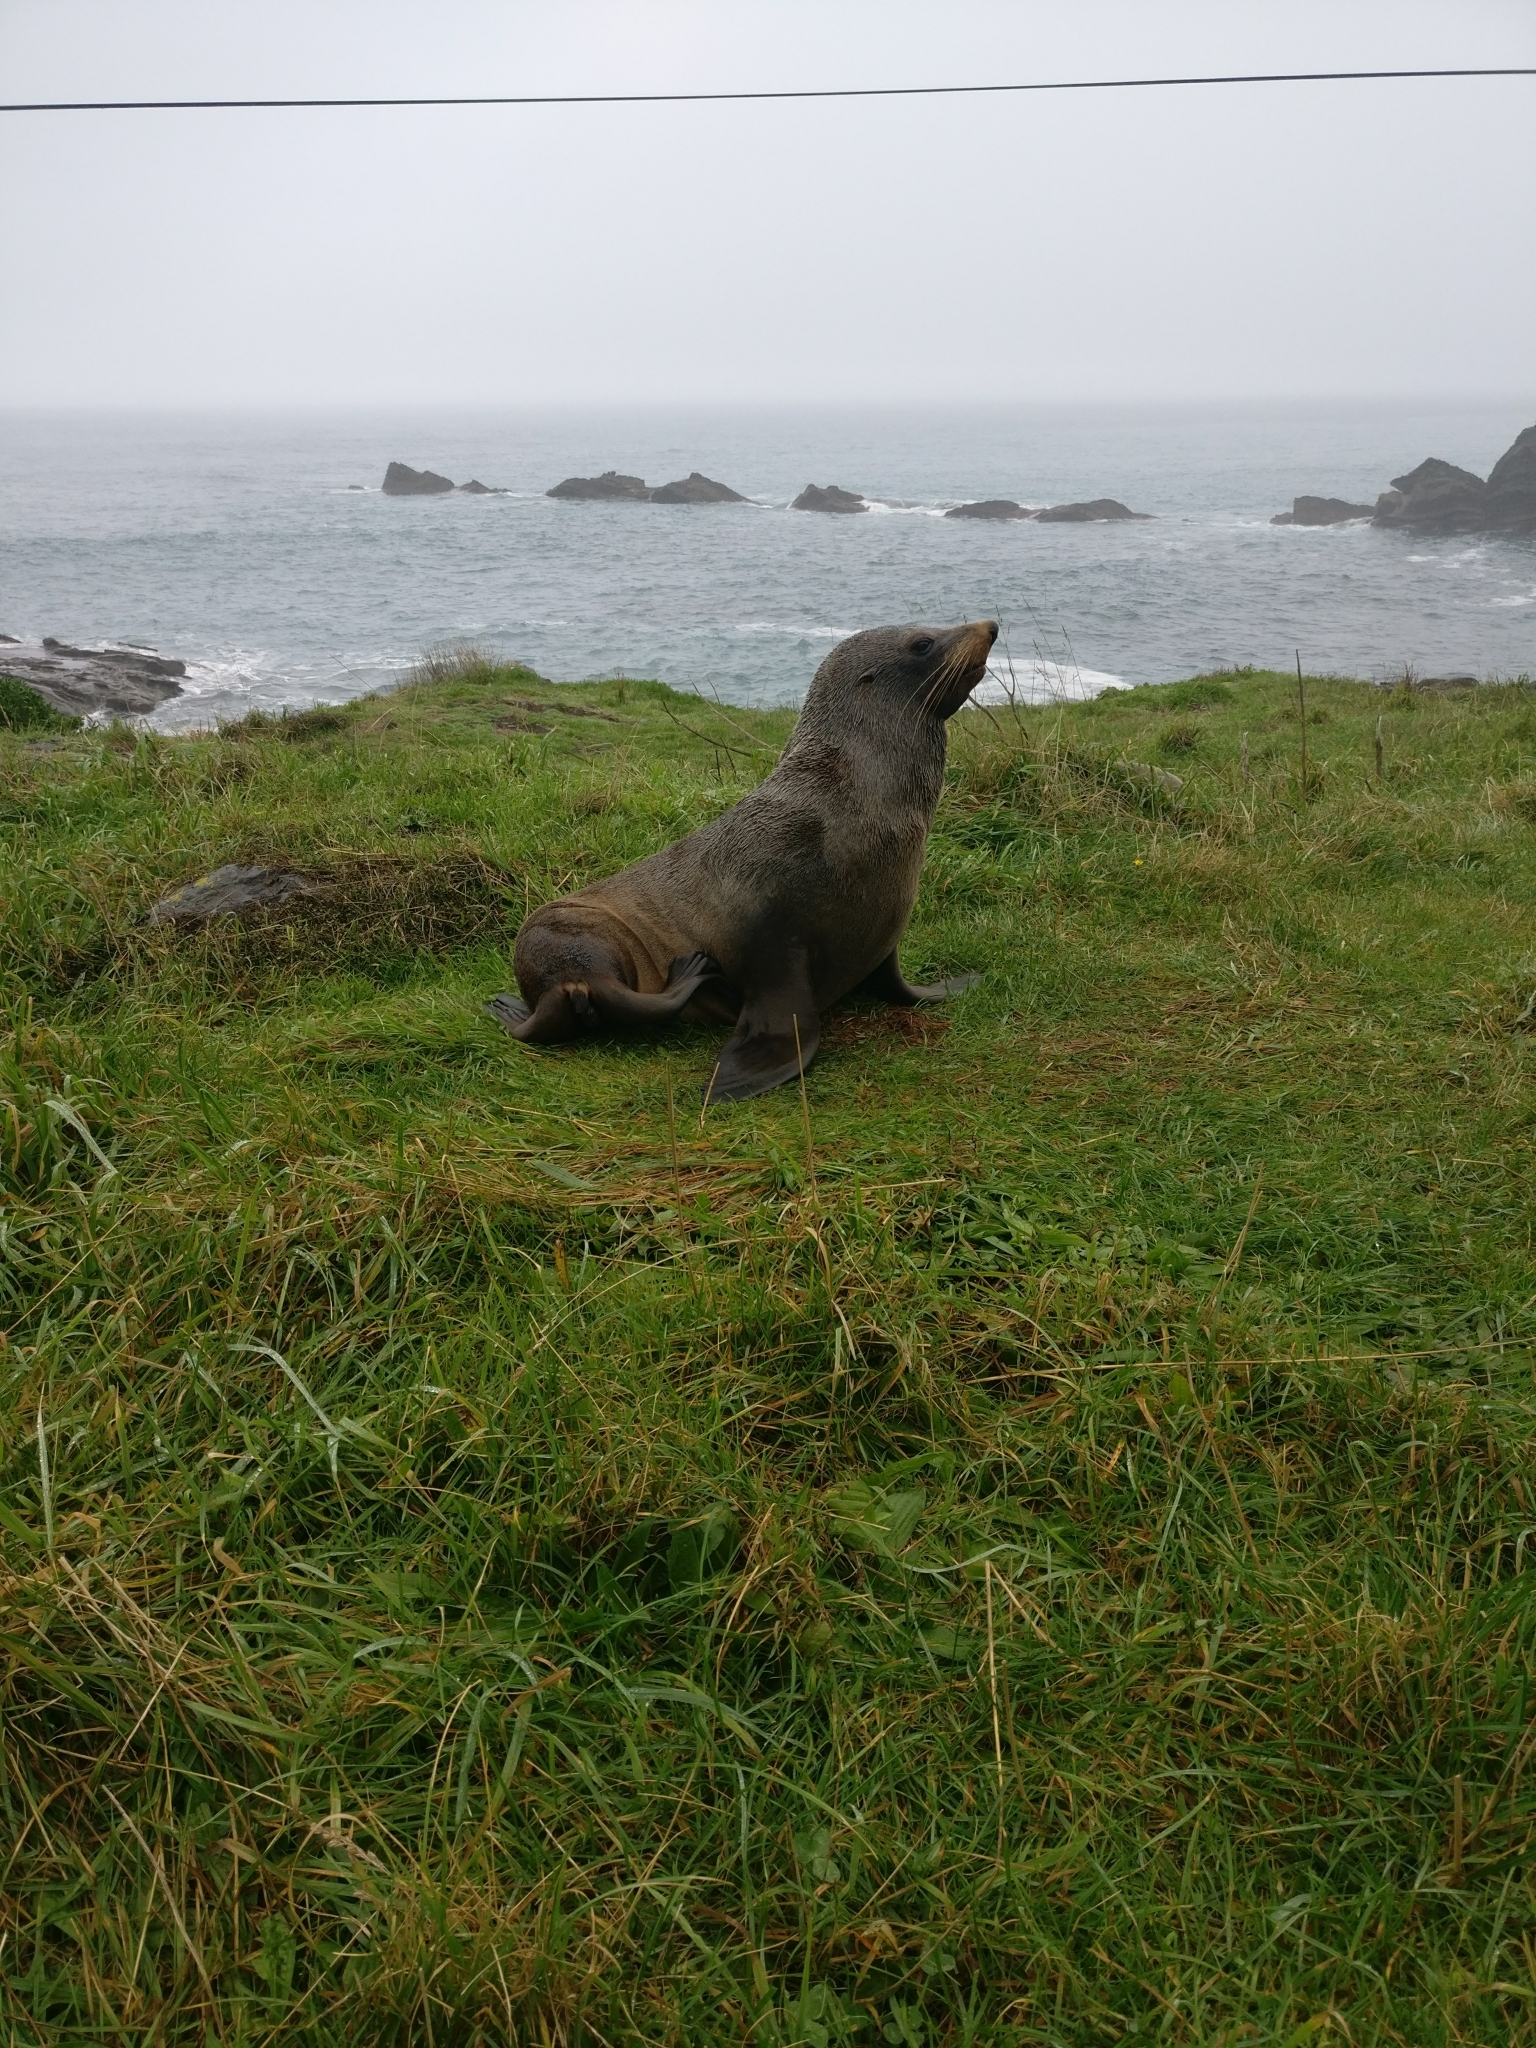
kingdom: Animalia
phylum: Chordata
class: Mammalia
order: Carnivora
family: Otariidae
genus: Arctocephalus
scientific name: Arctocephalus forsteri
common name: New zealand fur seal
